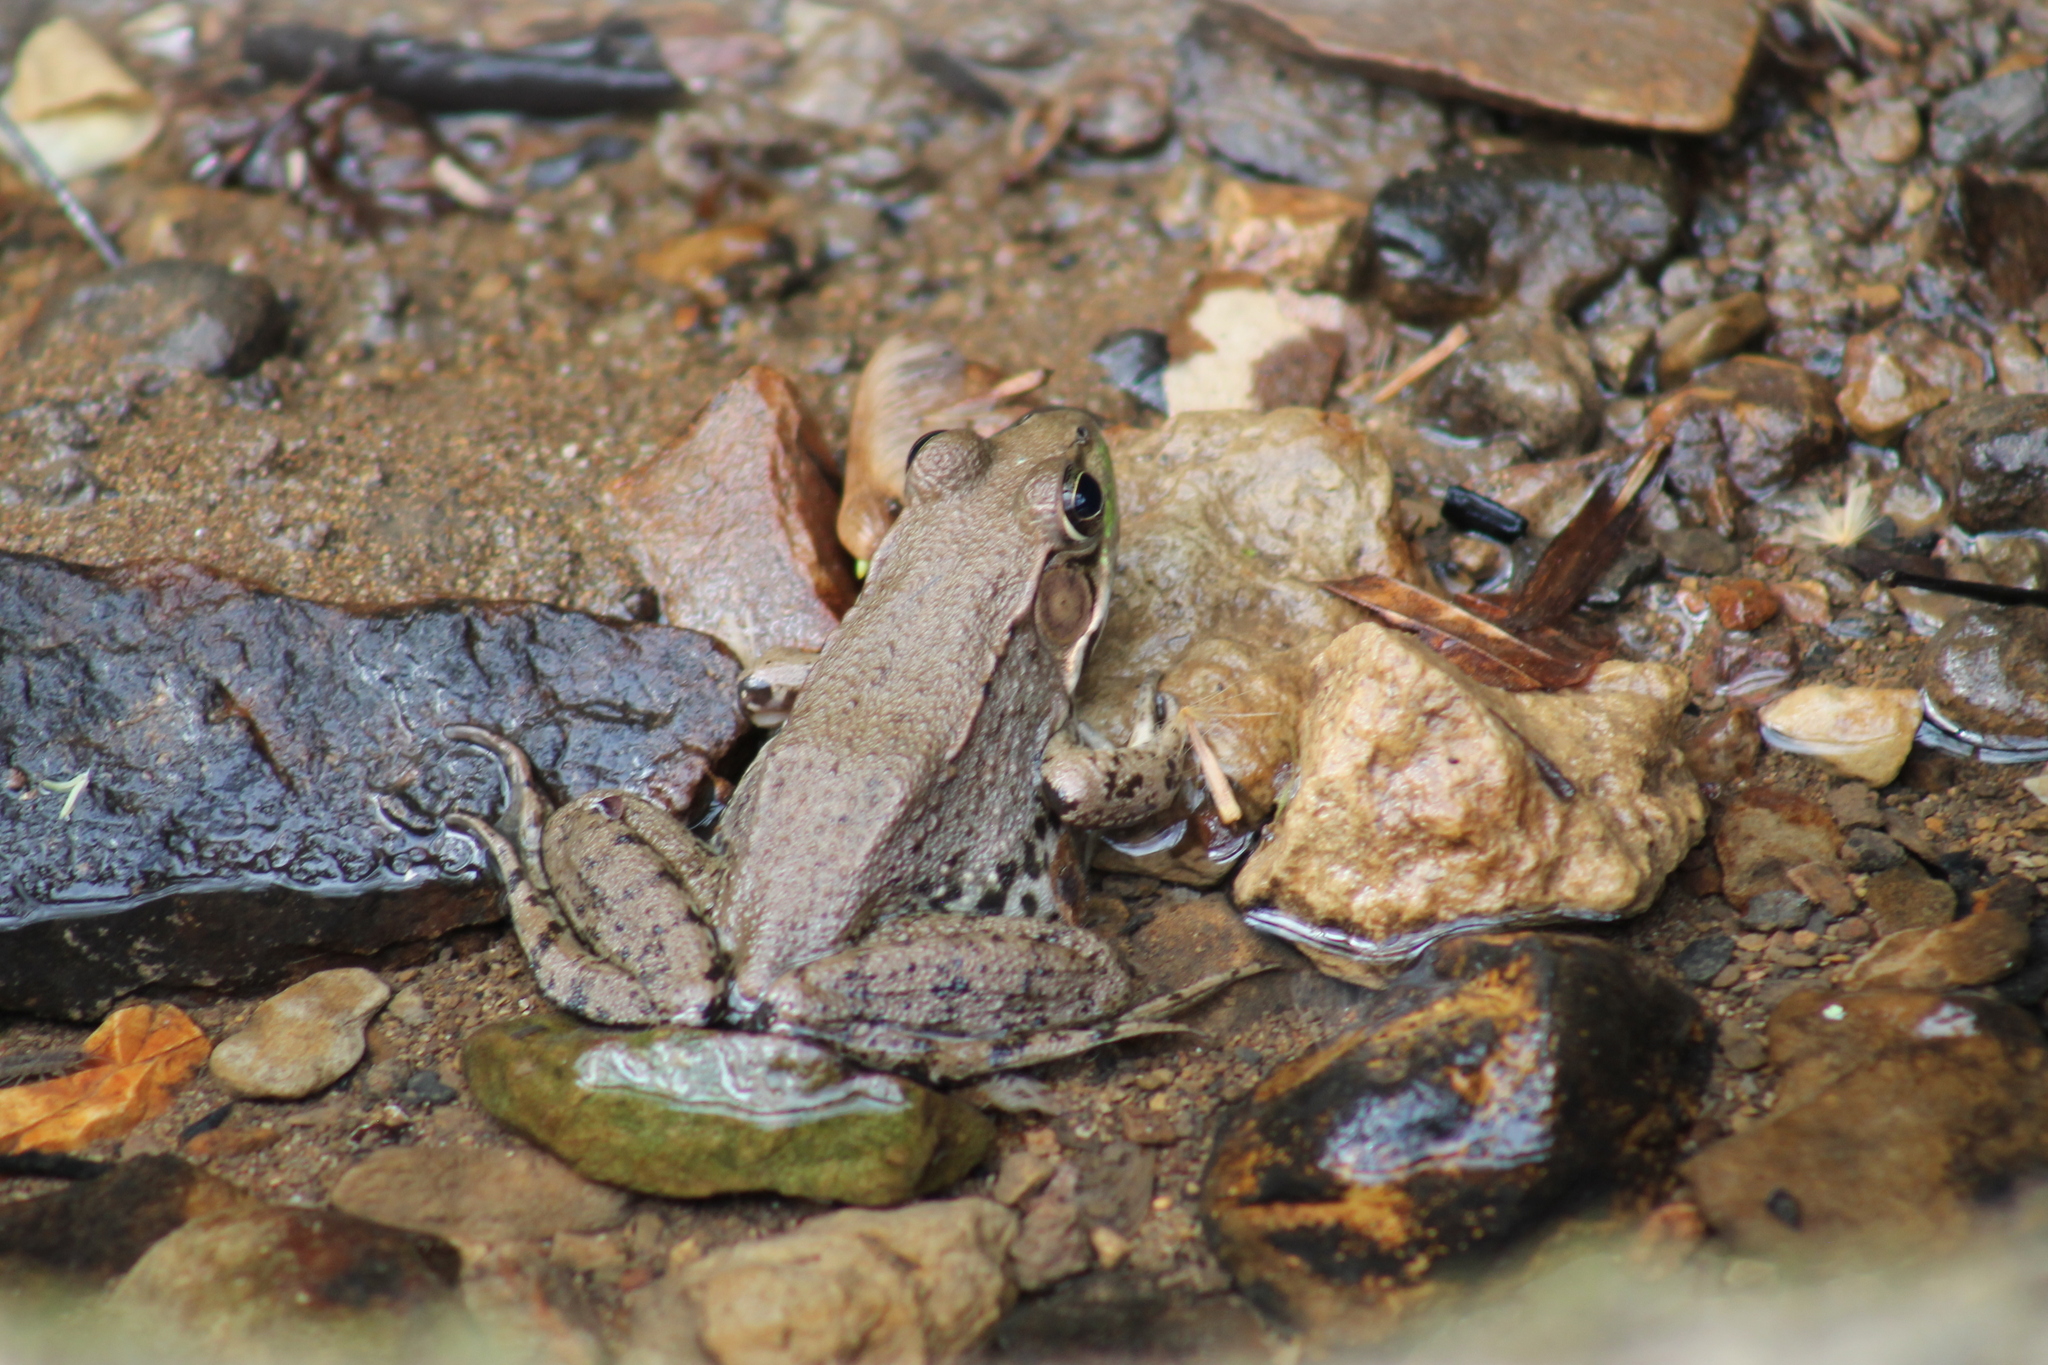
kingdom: Animalia
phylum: Chordata
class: Amphibia
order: Anura
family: Ranidae
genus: Lithobates
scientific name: Lithobates clamitans
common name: Green frog
